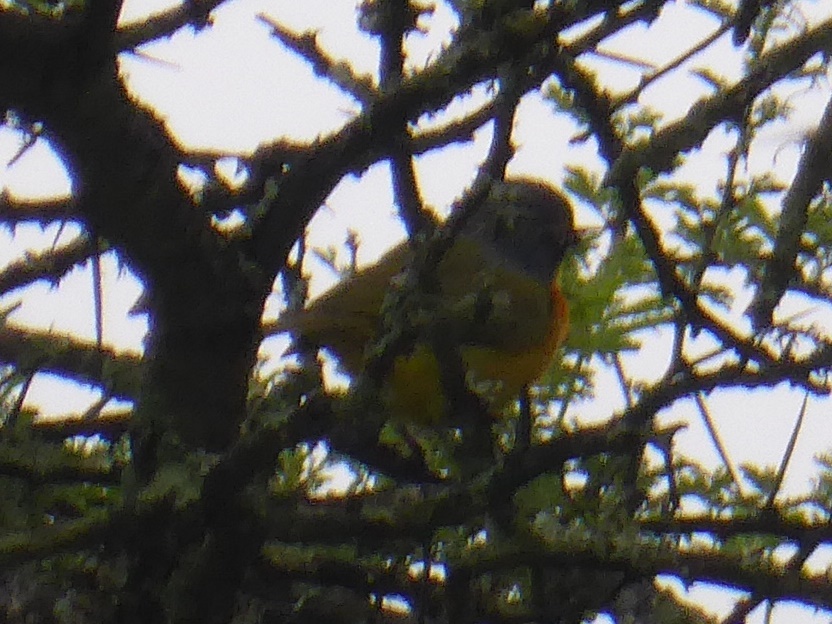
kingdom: Animalia
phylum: Chordata
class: Aves
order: Passeriformes
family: Malaconotidae
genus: Chlorophoneus
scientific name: Chlorophoneus sulfureopectus
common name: Orange-breasted bushshrike
